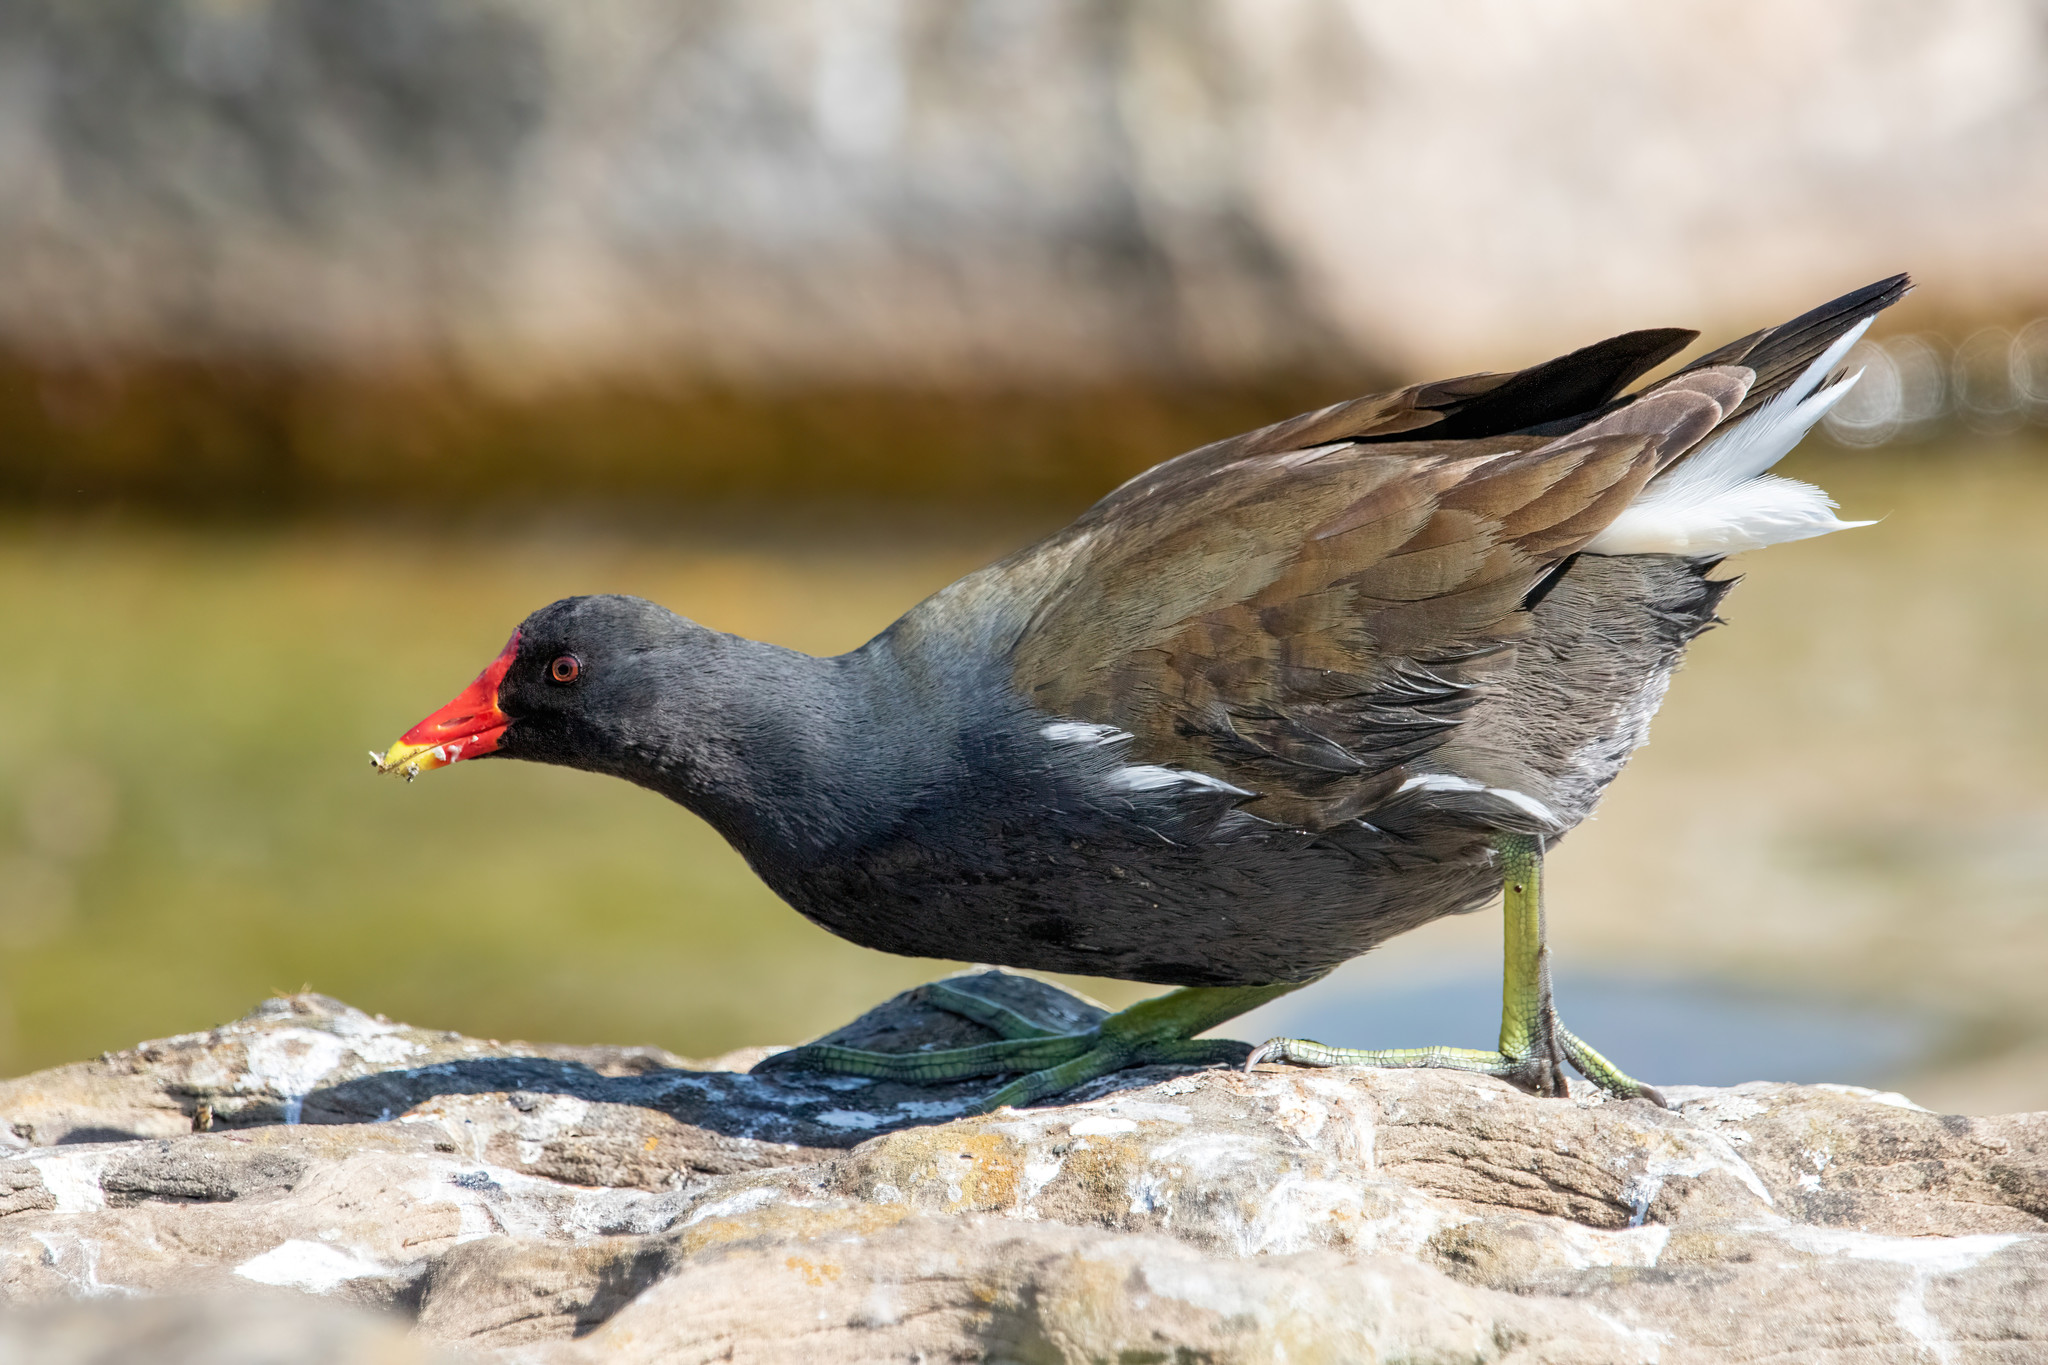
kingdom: Animalia
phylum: Chordata
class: Aves
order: Gruiformes
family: Rallidae
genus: Gallinula
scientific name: Gallinula chloropus
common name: Common moorhen
